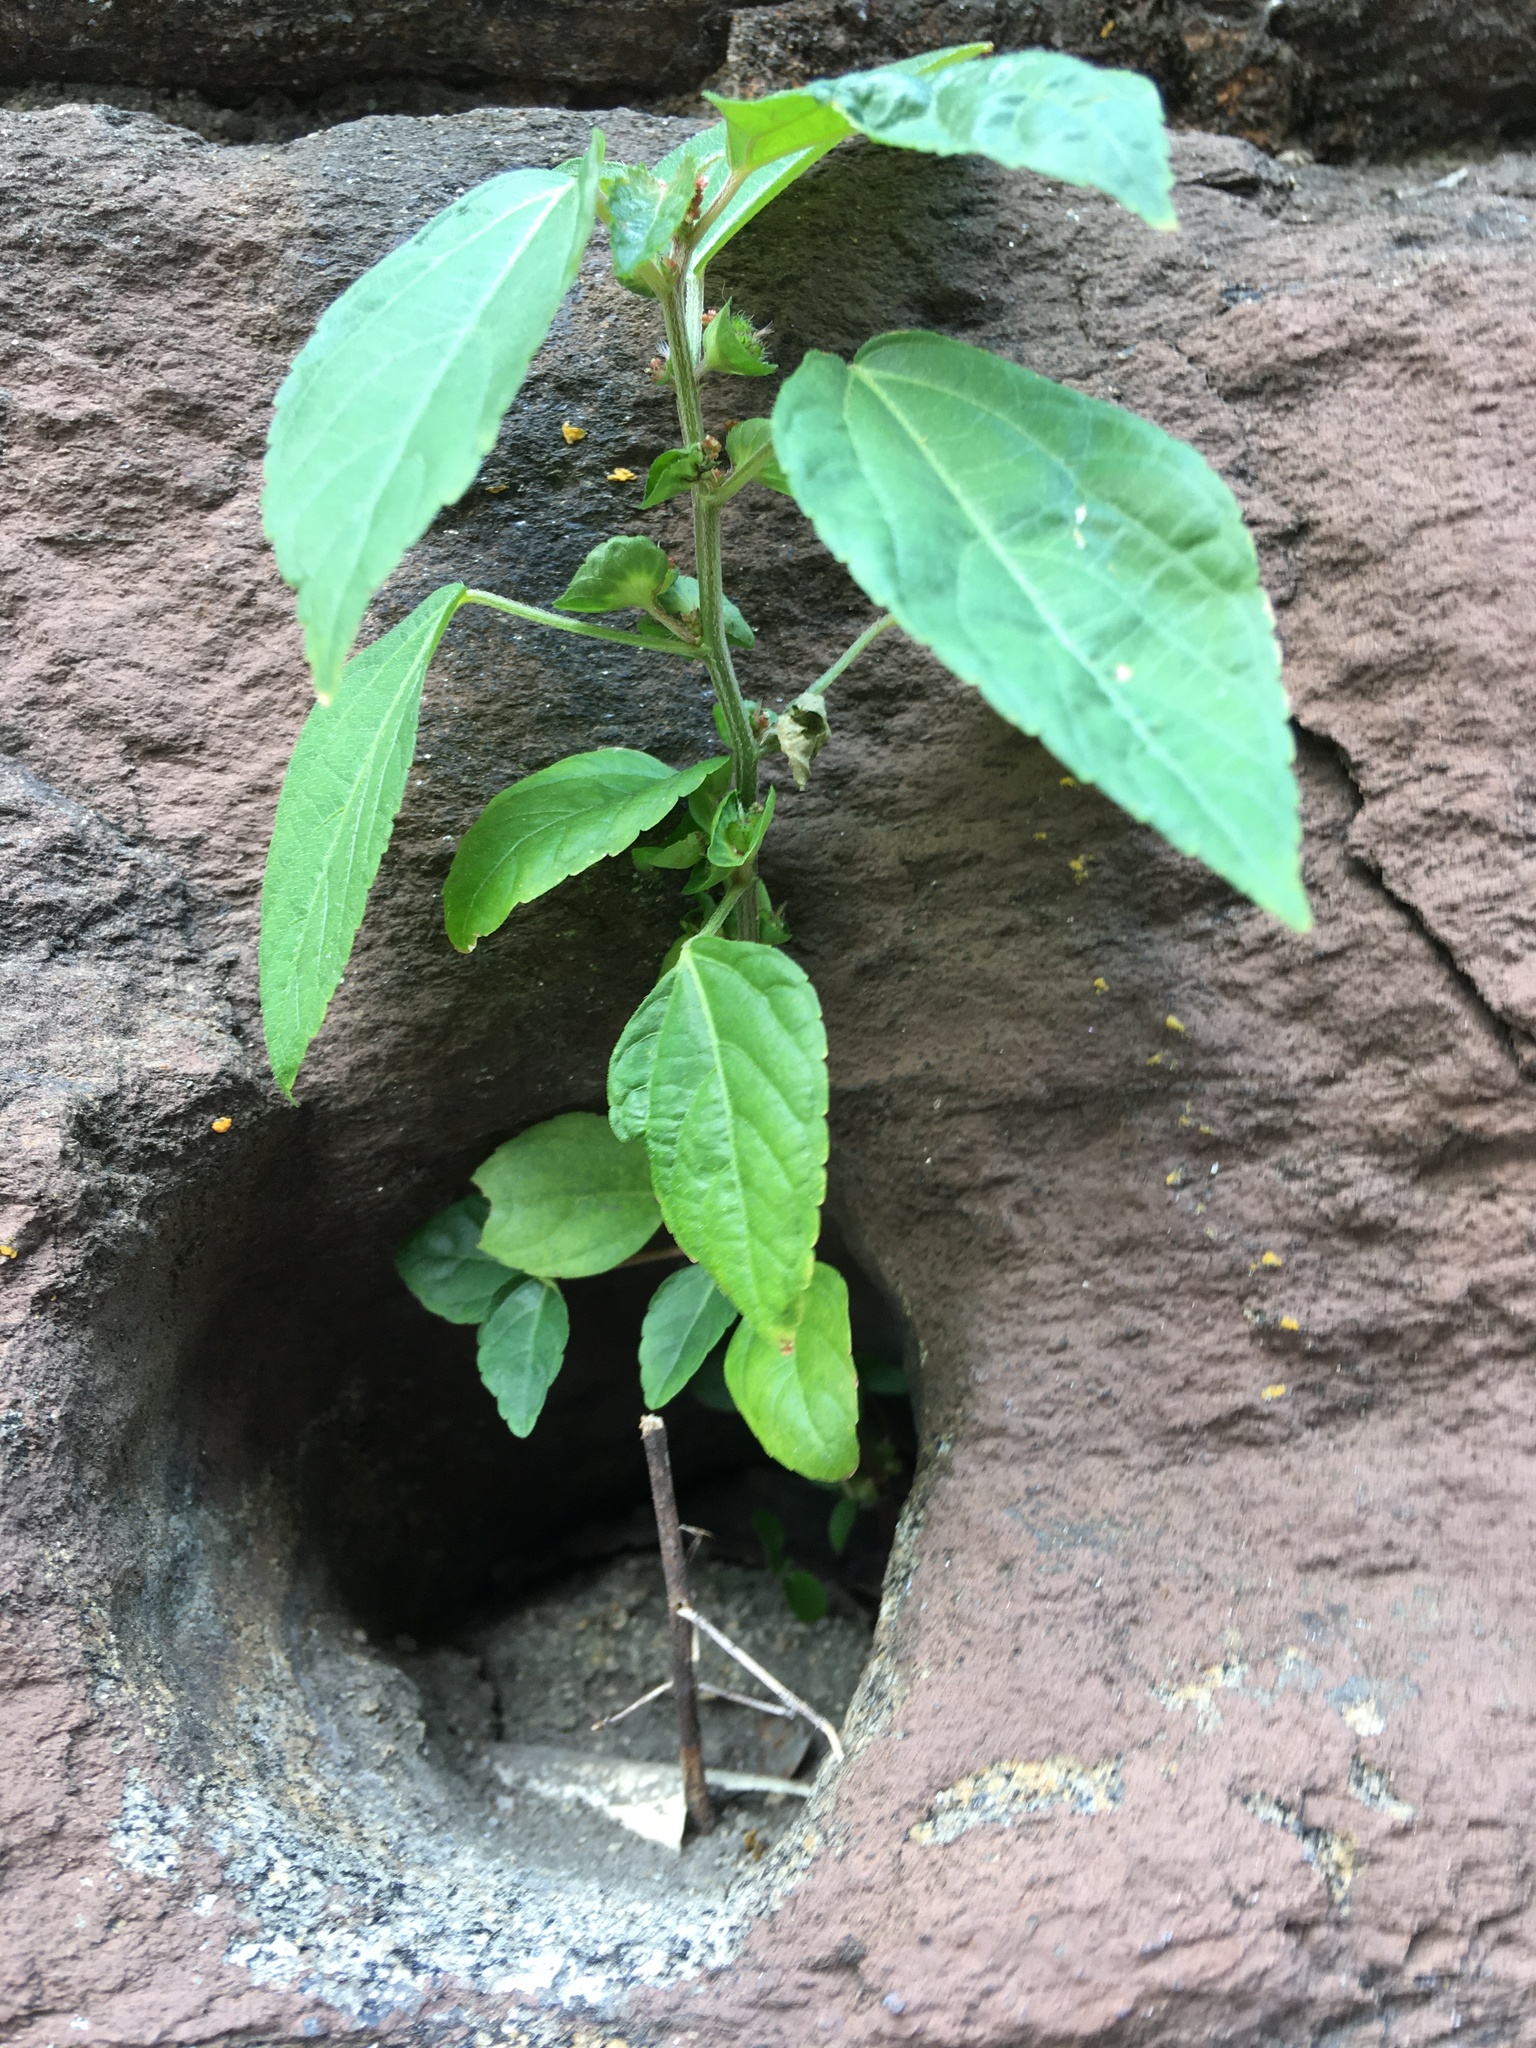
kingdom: Plantae
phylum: Tracheophyta
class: Magnoliopsida
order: Malpighiales
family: Euphorbiaceae
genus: Acalypha
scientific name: Acalypha australis
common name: Asian copperleaf
